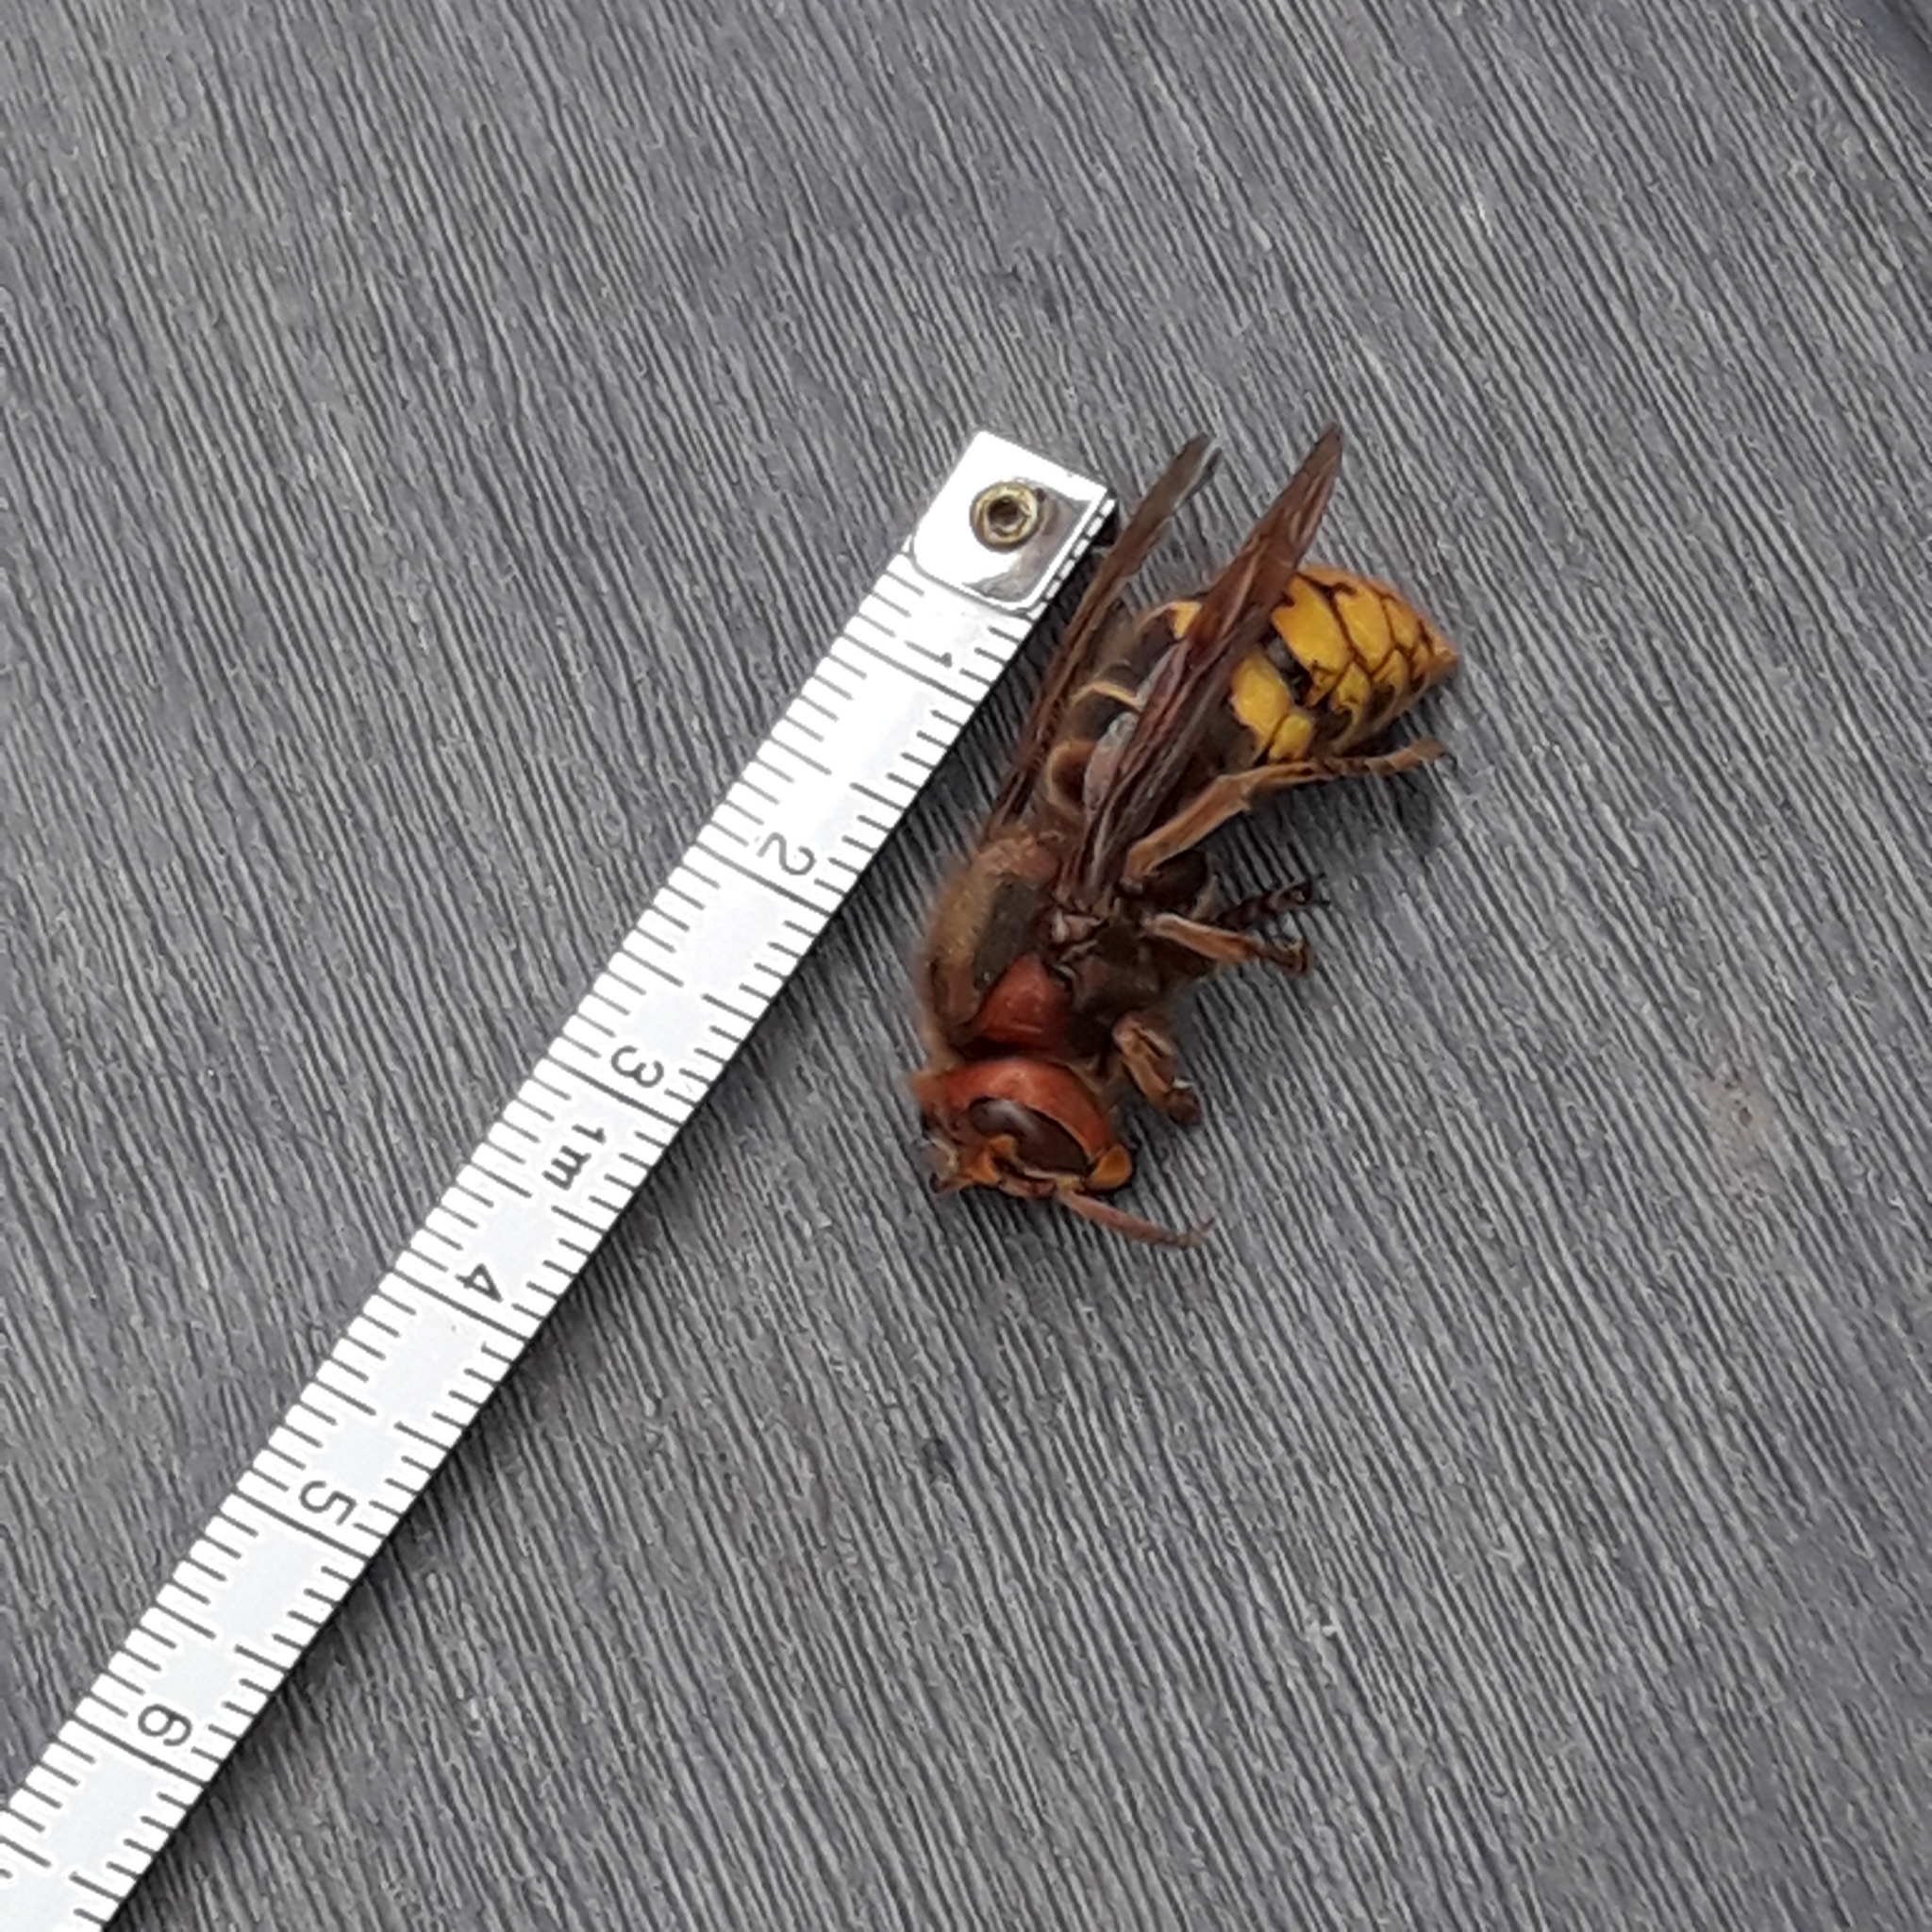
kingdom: Animalia
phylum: Arthropoda
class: Insecta
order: Hymenoptera
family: Vespidae
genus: Vespa
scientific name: Vespa crabro
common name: Hornet
